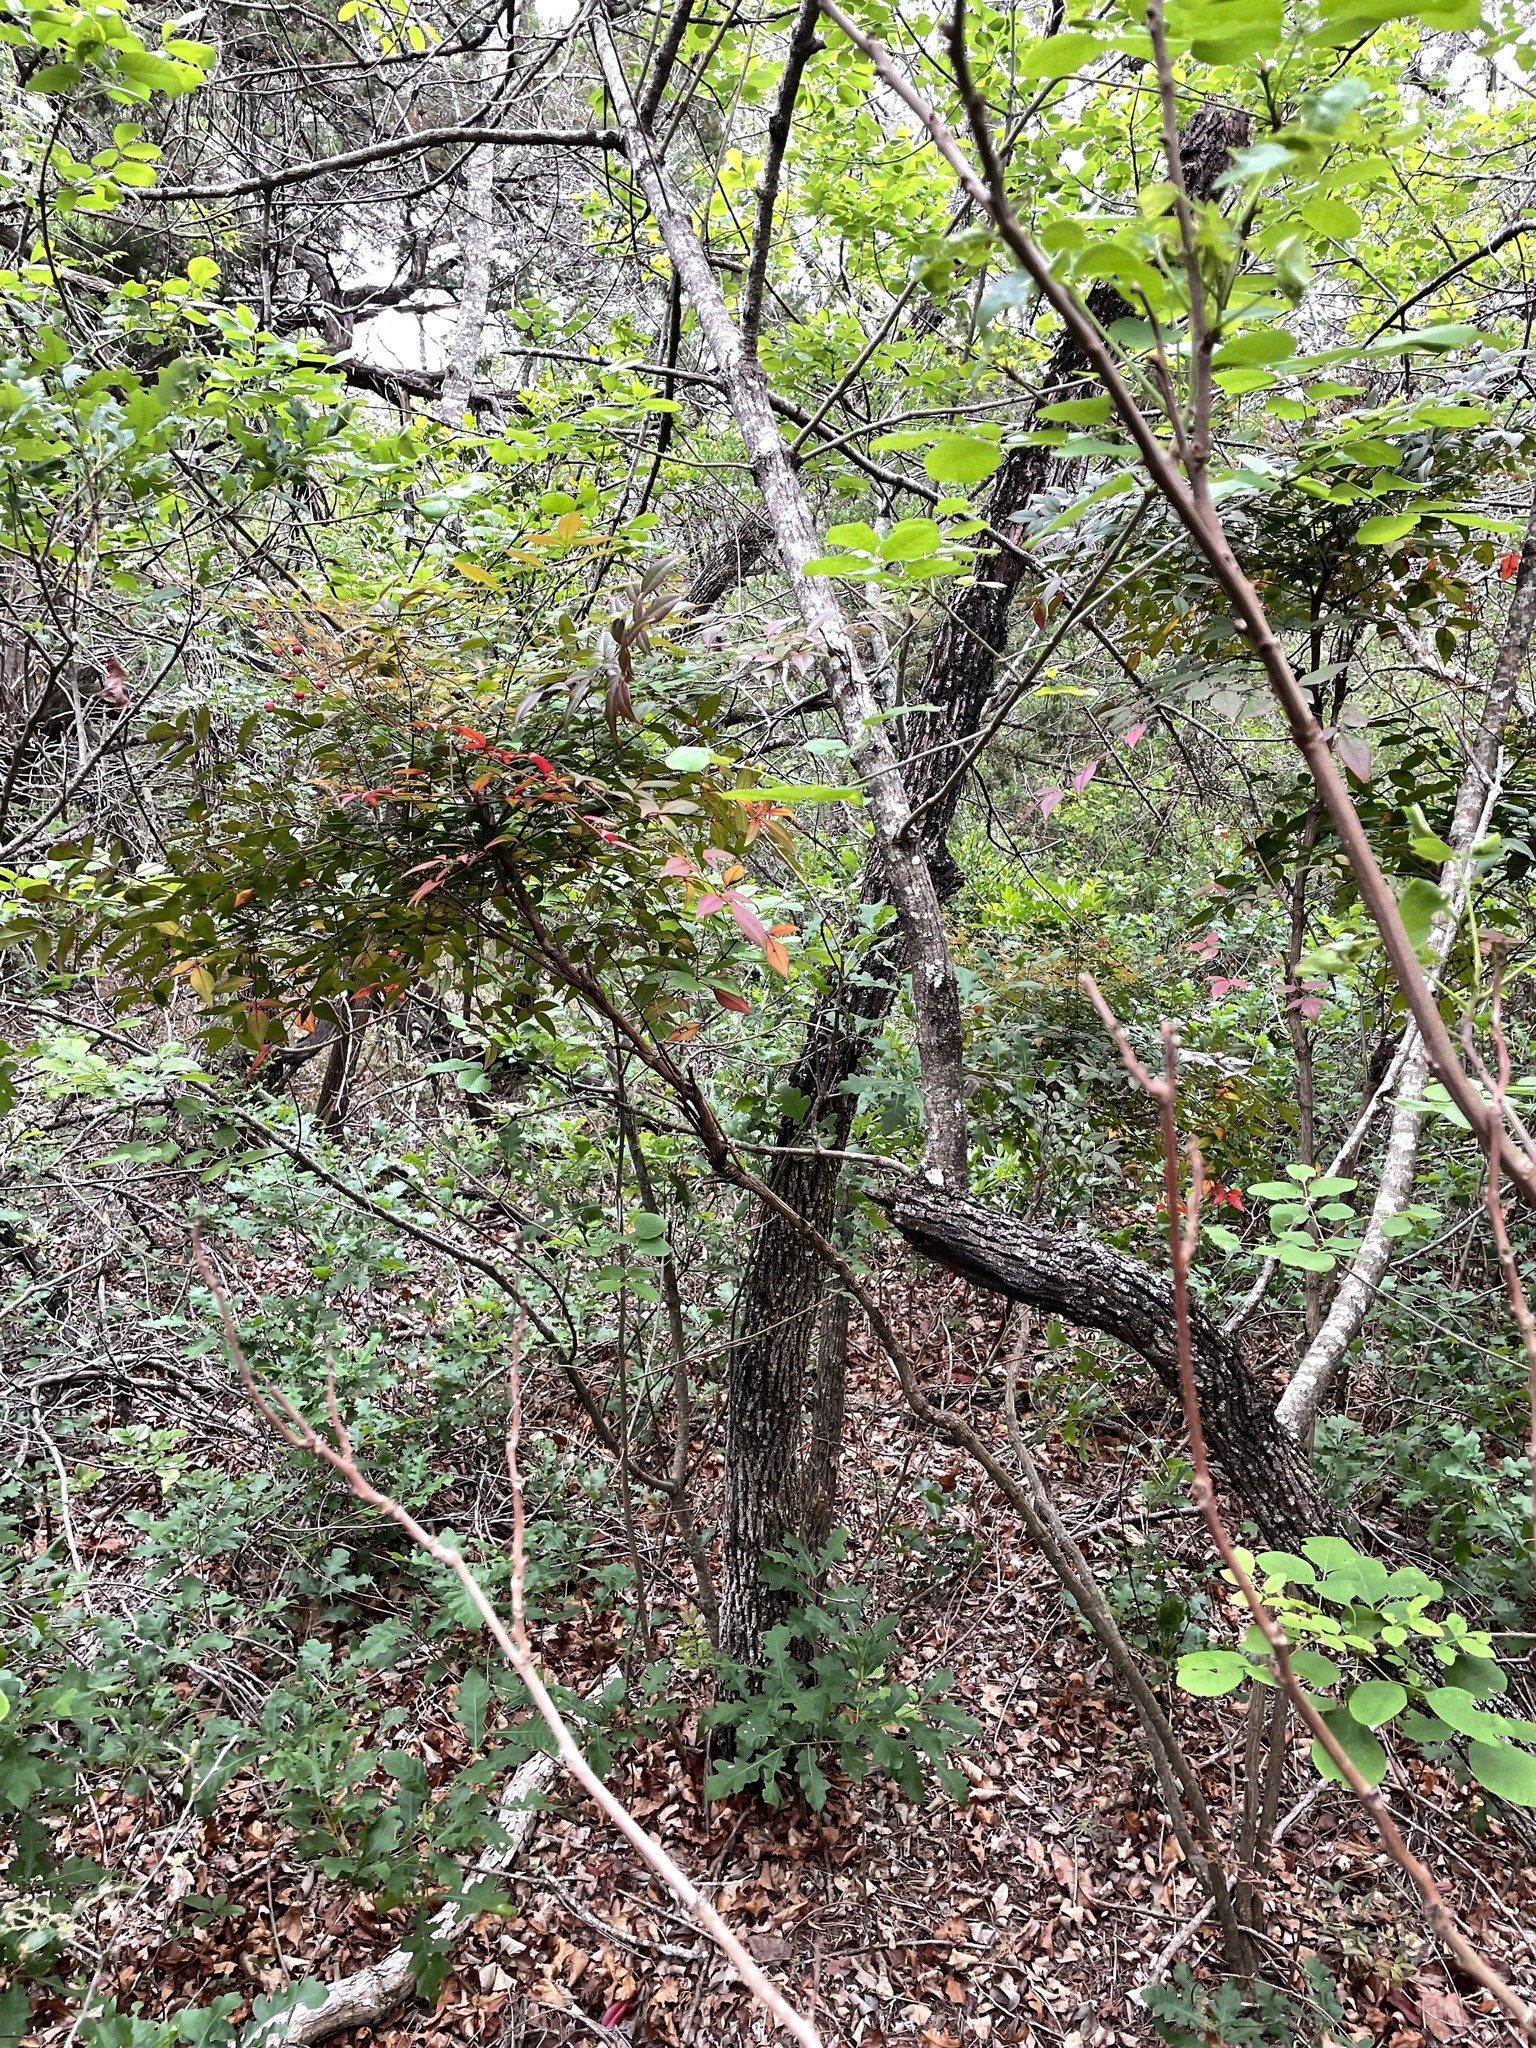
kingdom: Plantae
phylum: Tracheophyta
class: Magnoliopsida
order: Ranunculales
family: Berberidaceae
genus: Nandina
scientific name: Nandina domestica
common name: Sacred bamboo
